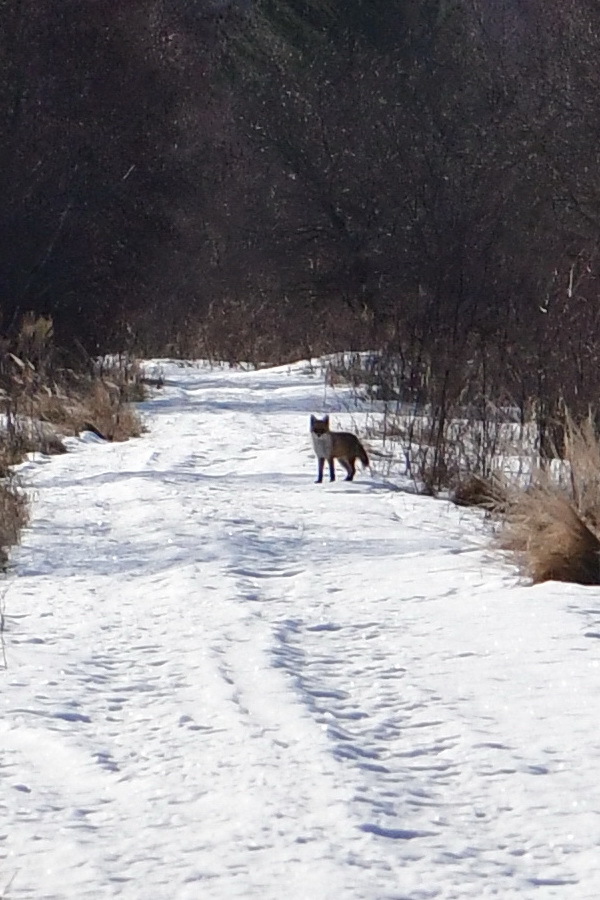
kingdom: Animalia
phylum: Chordata
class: Mammalia
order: Carnivora
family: Canidae
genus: Vulpes
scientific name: Vulpes vulpes
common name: Red fox
